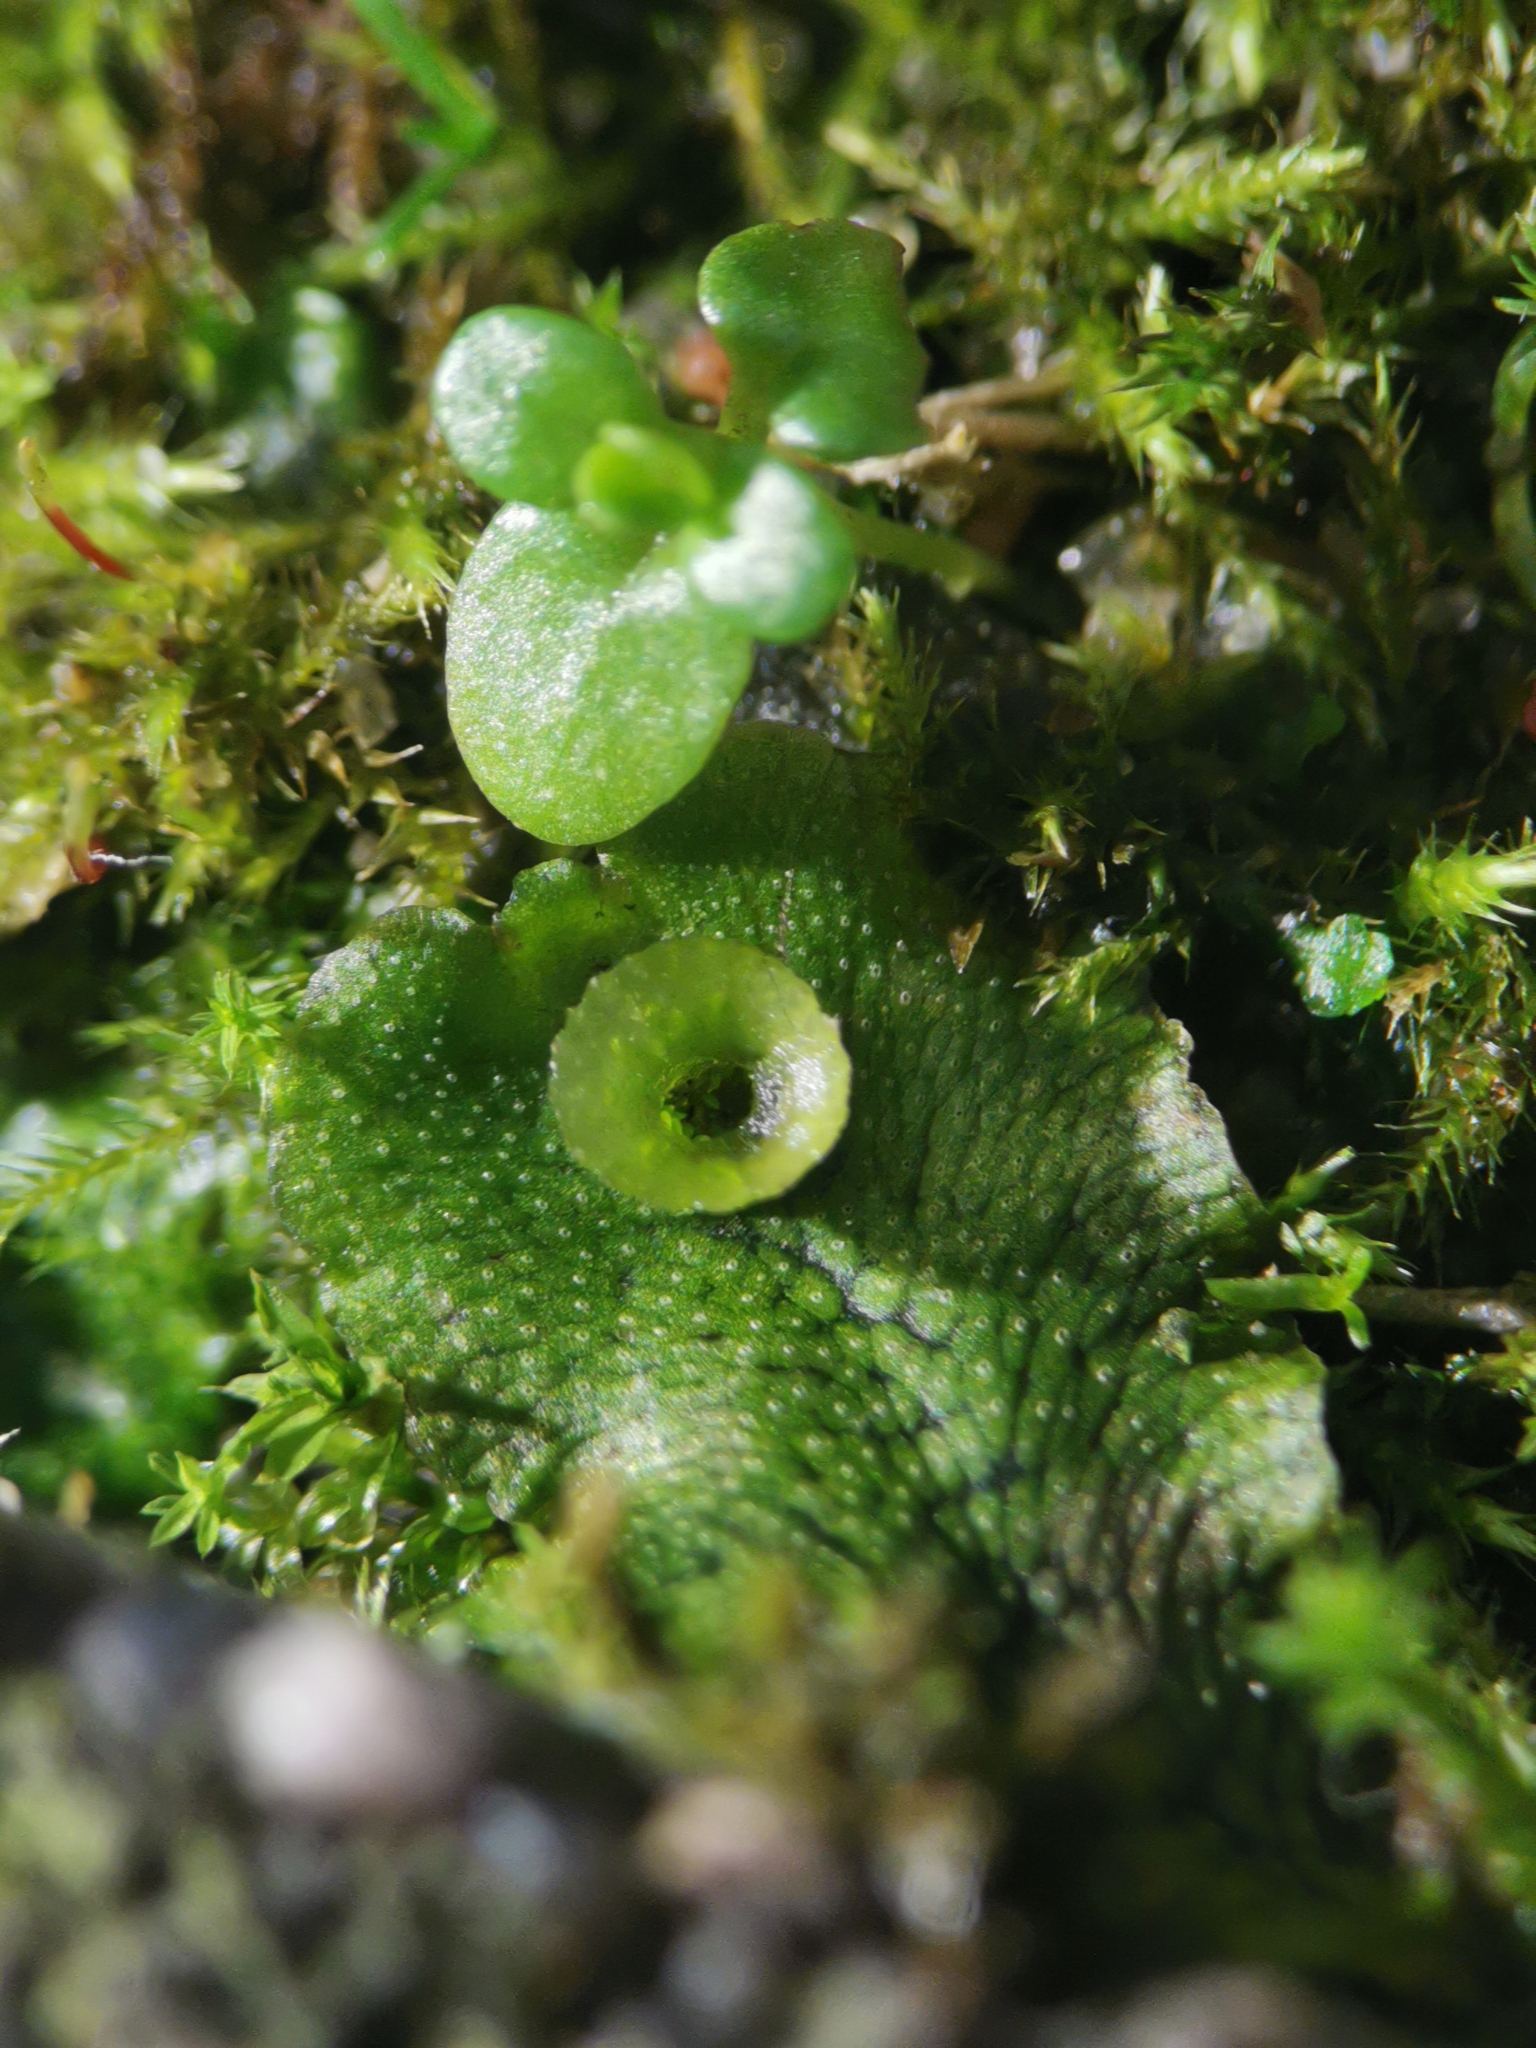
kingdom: Plantae
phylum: Marchantiophyta
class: Marchantiopsida
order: Marchantiales
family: Marchantiaceae
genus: Marchantia
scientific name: Marchantia polymorpha
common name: Common liverwort
